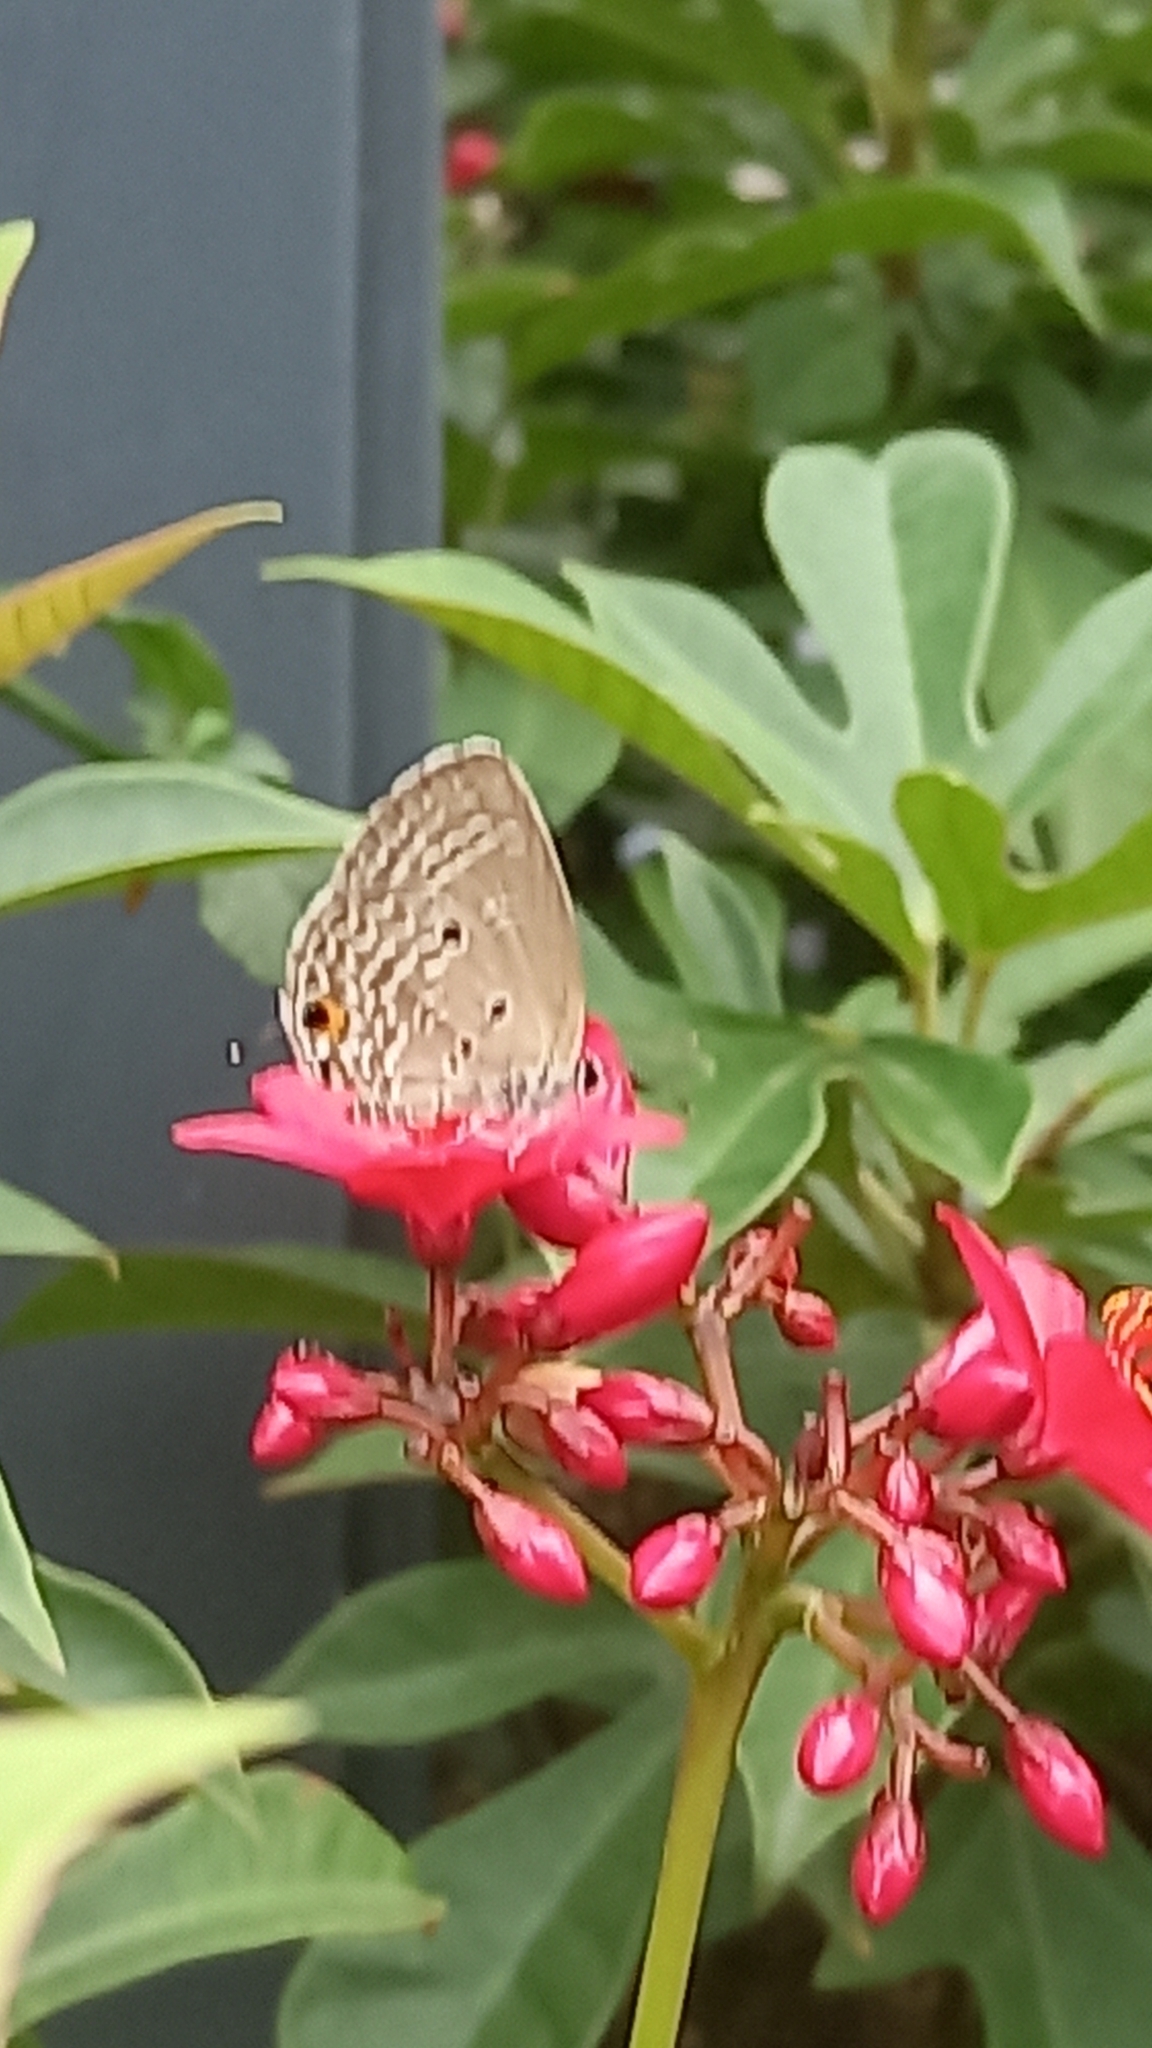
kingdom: Animalia
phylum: Arthropoda
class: Insecta
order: Lepidoptera
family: Lycaenidae
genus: Luthrodes
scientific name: Luthrodes pandava
